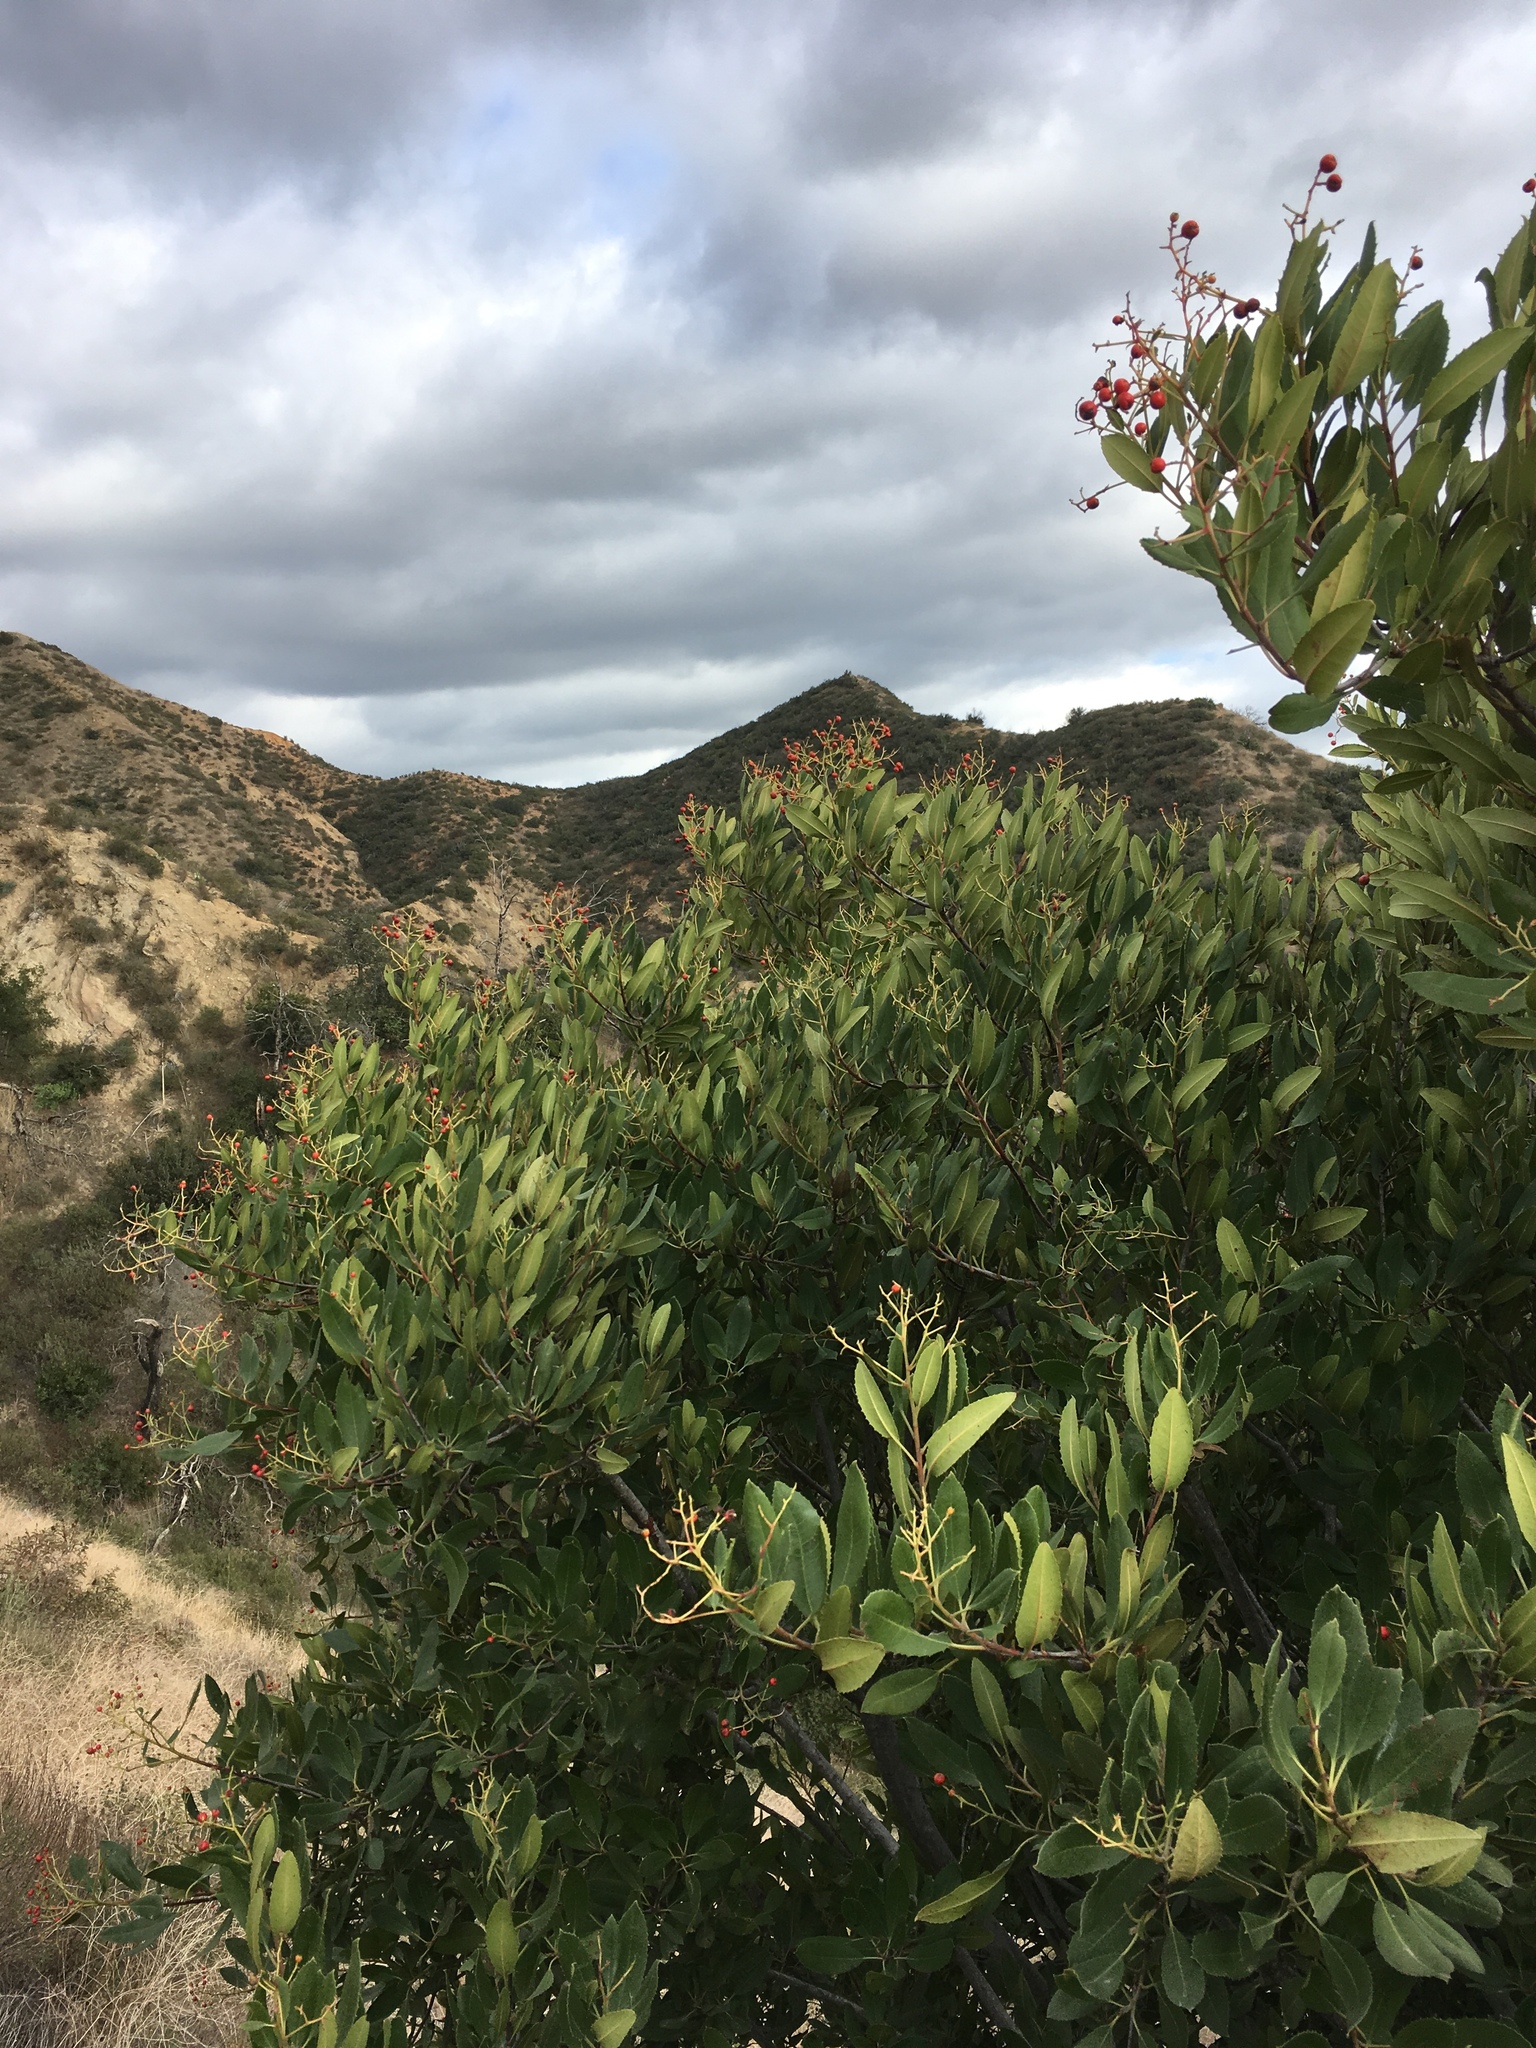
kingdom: Plantae
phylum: Tracheophyta
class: Magnoliopsida
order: Rosales
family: Rosaceae
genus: Heteromeles
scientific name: Heteromeles arbutifolia
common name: California-holly
